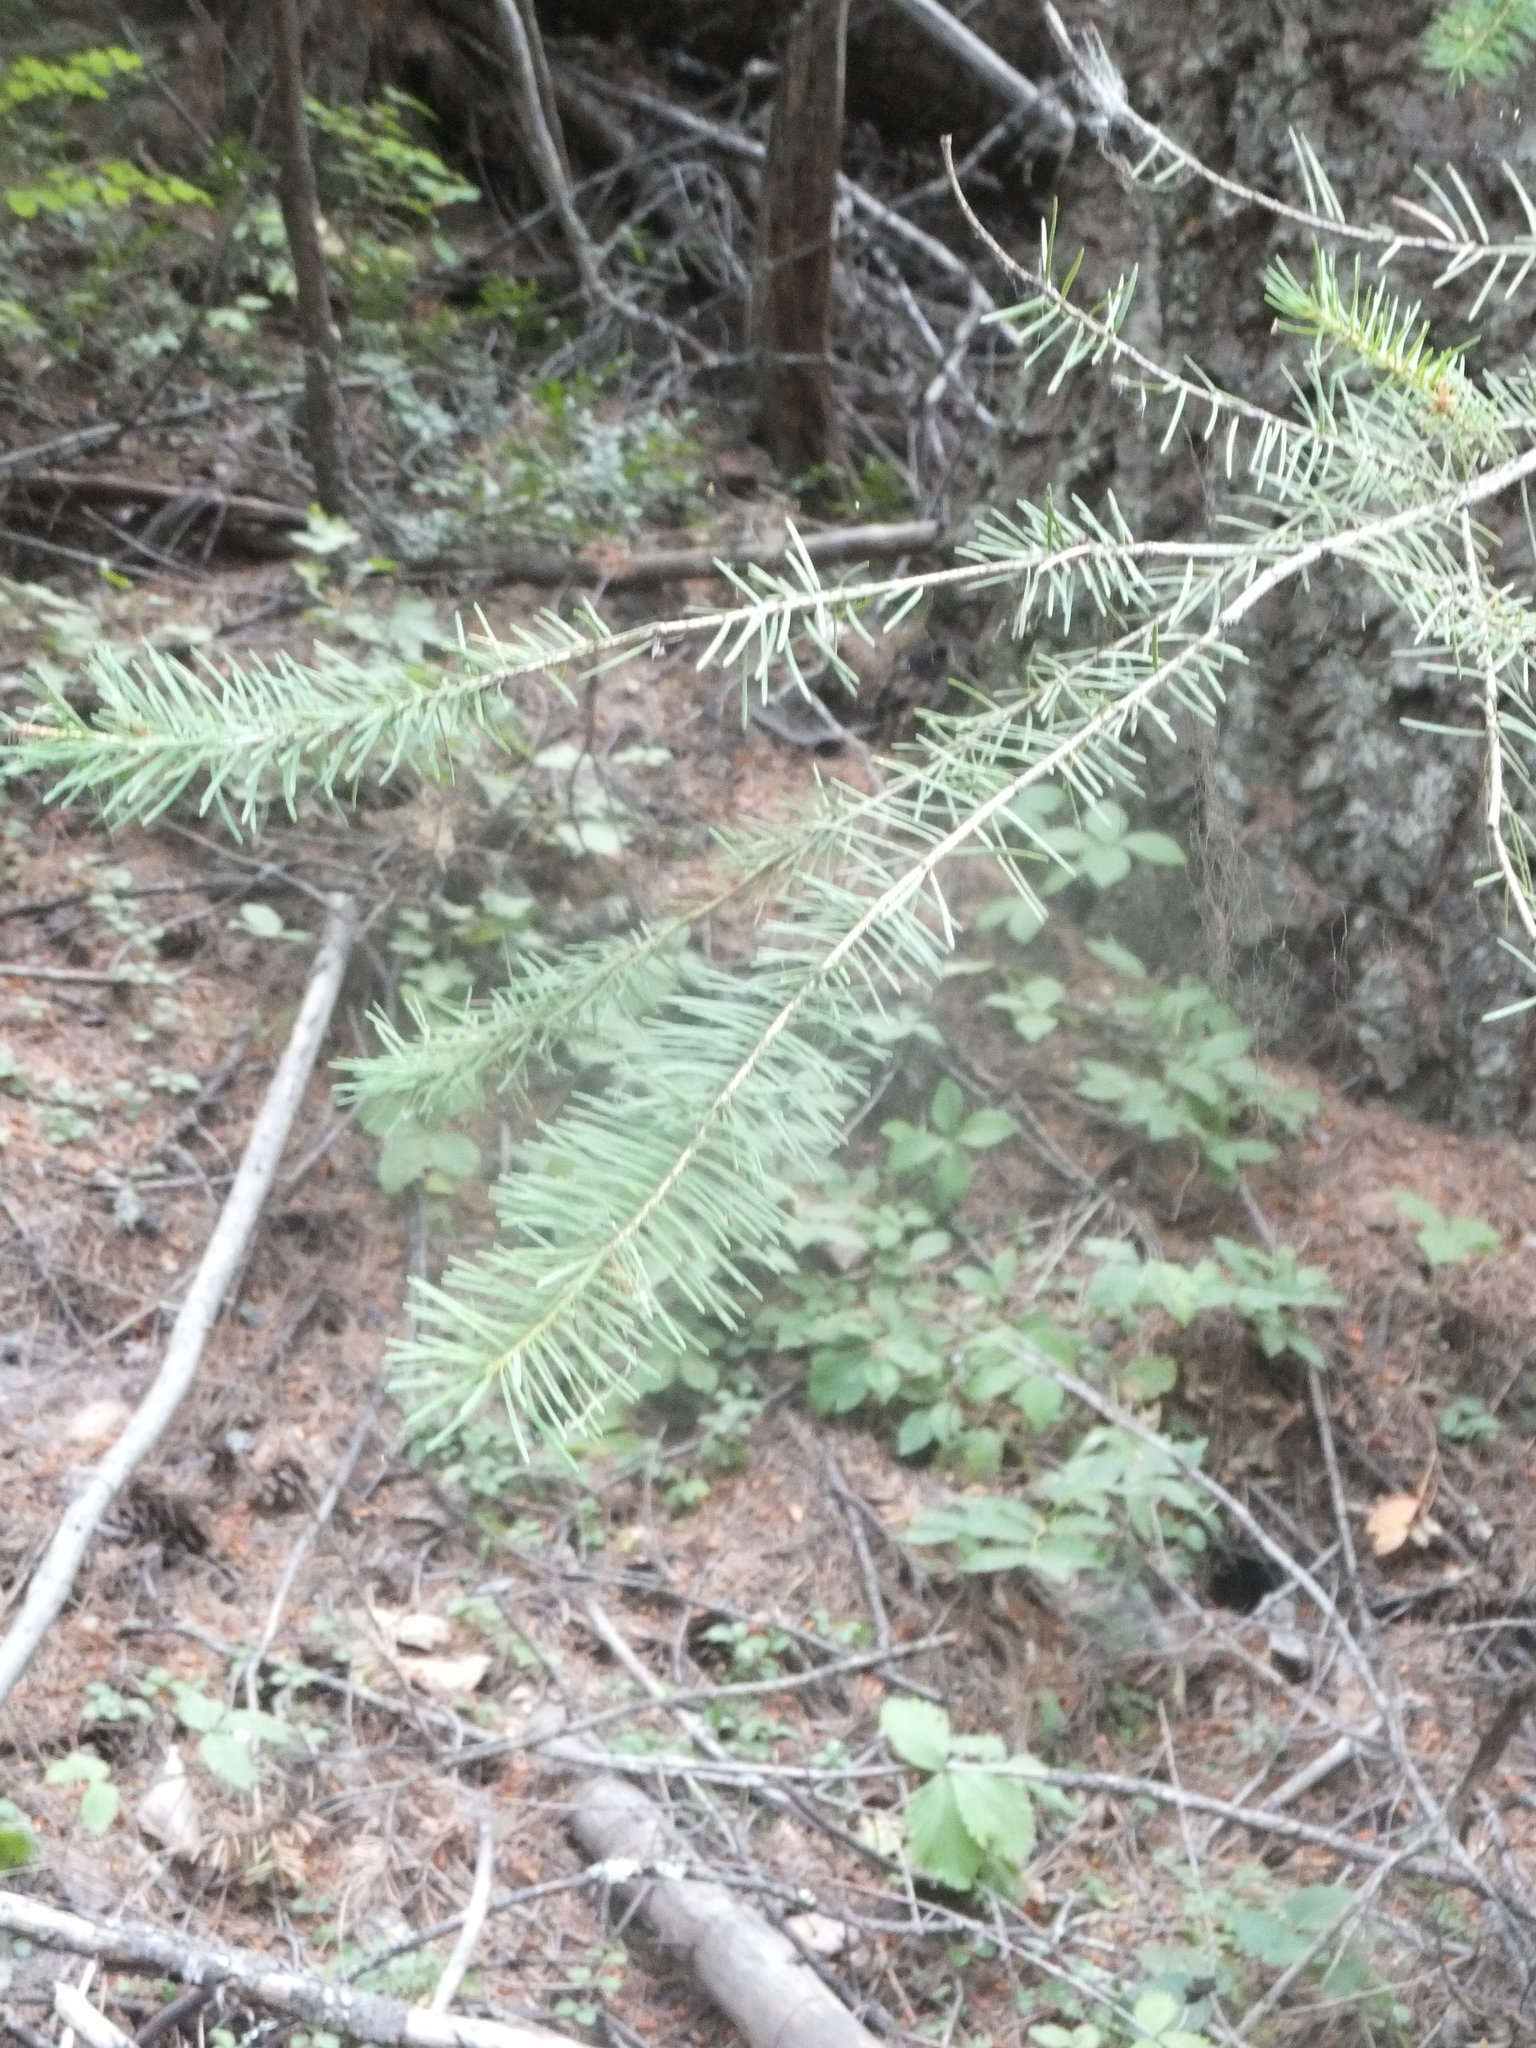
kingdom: Plantae
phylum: Tracheophyta
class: Pinopsida
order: Pinales
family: Pinaceae
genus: Pseudotsuga
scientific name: Pseudotsuga menziesii
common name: Douglas fir
